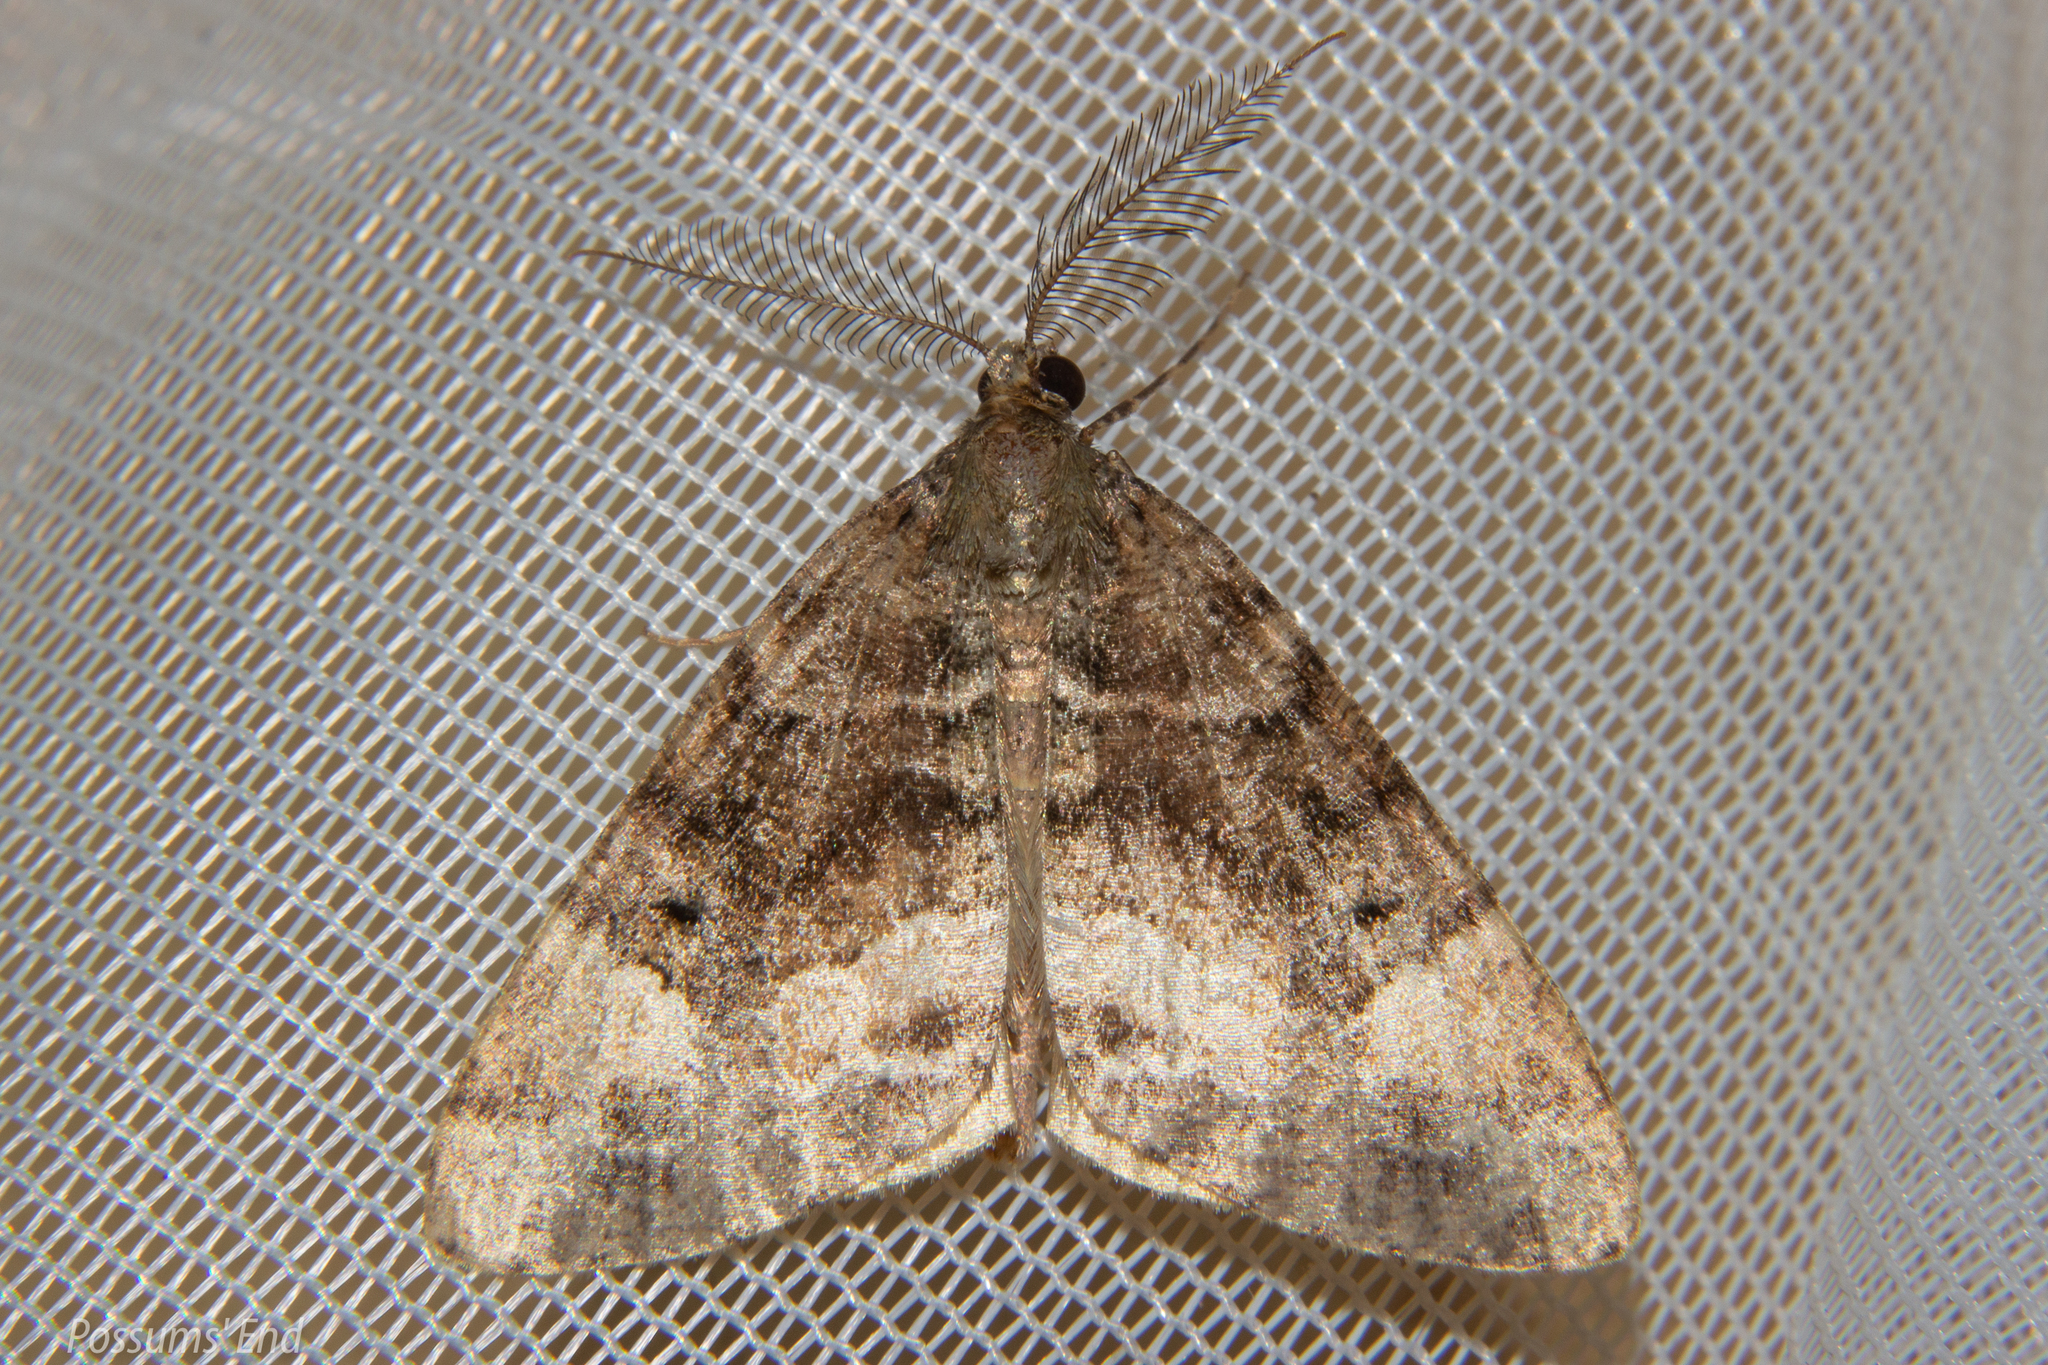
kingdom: Animalia
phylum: Arthropoda
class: Insecta
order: Lepidoptera
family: Geometridae
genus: Pseudocoremia
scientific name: Pseudocoremia productata
